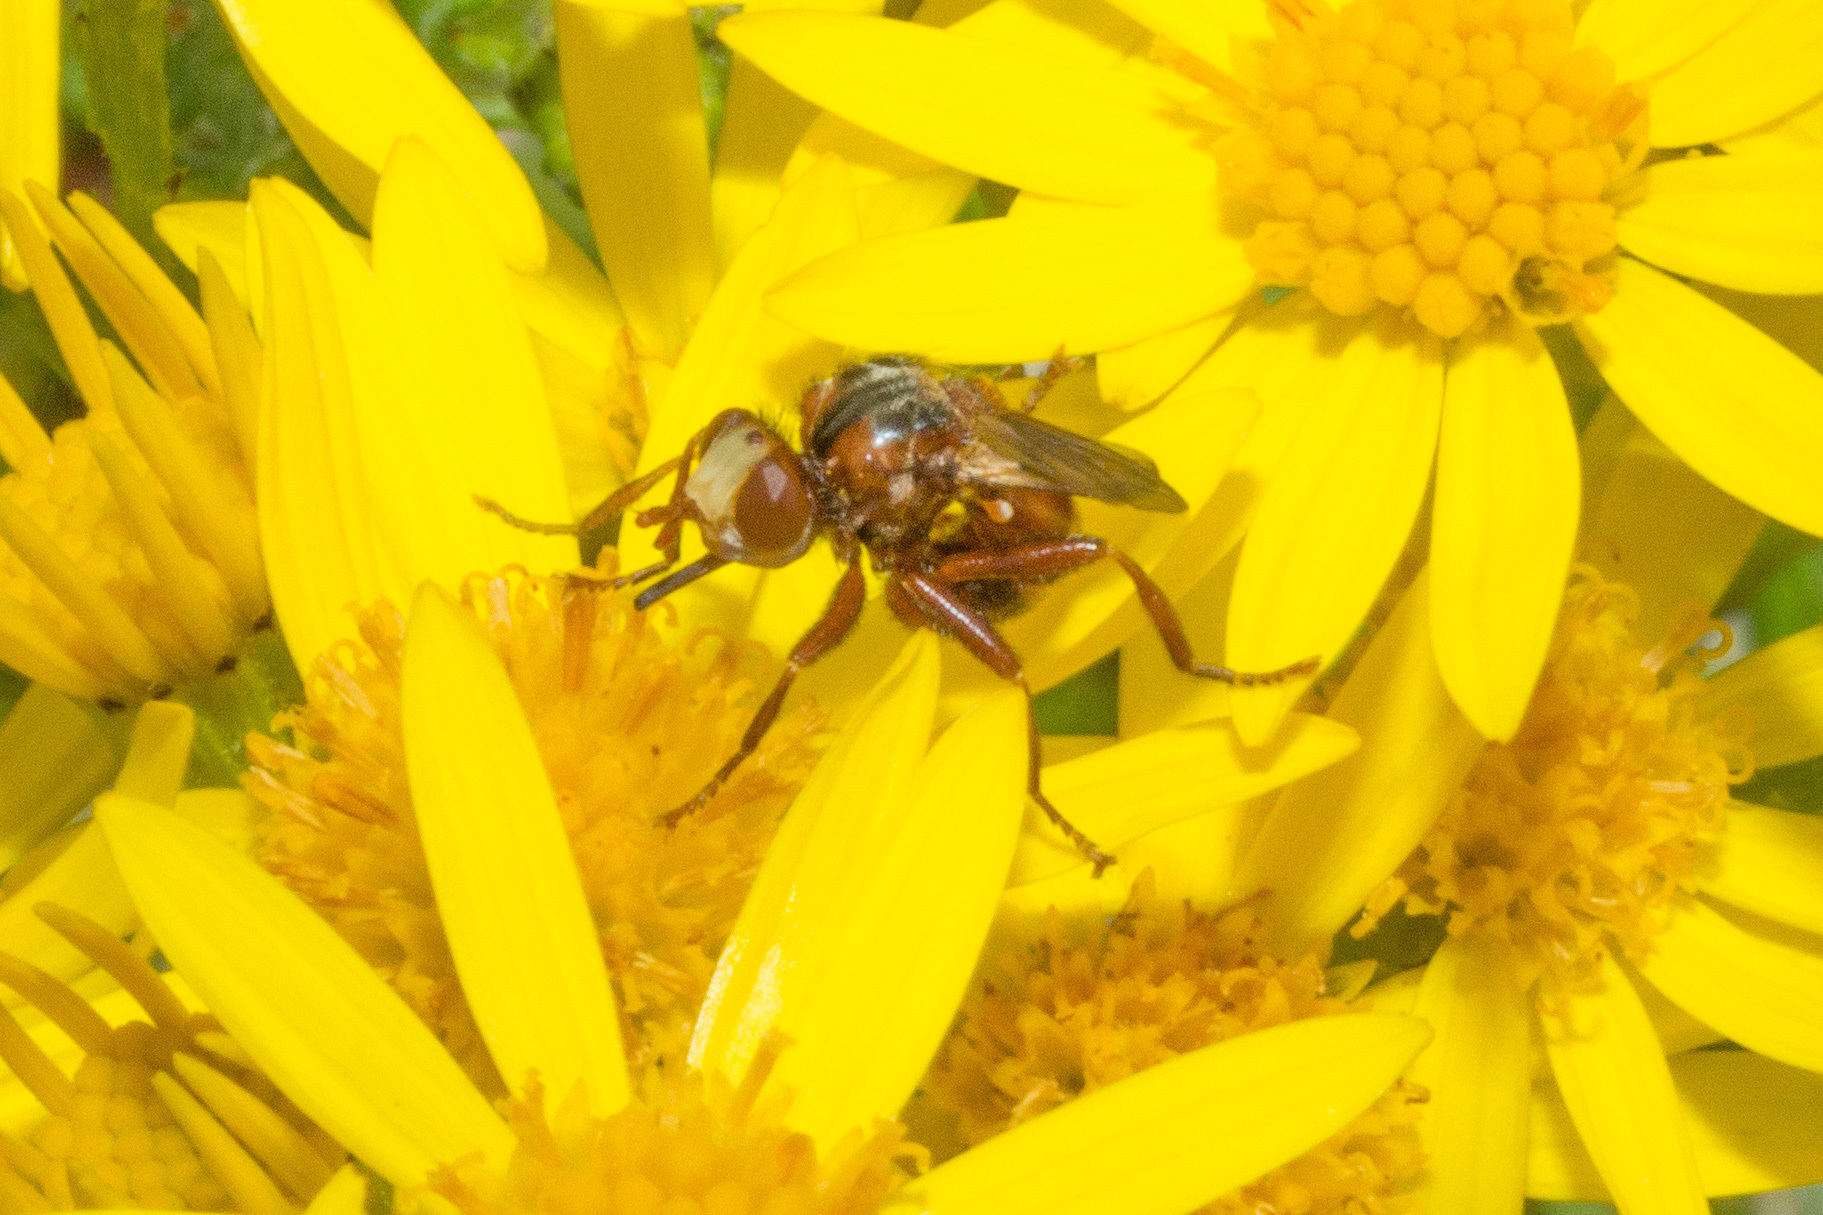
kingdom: Animalia
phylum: Arthropoda
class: Insecta
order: Diptera
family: Conopidae
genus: Sicus
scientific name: Sicus ferrugineus
